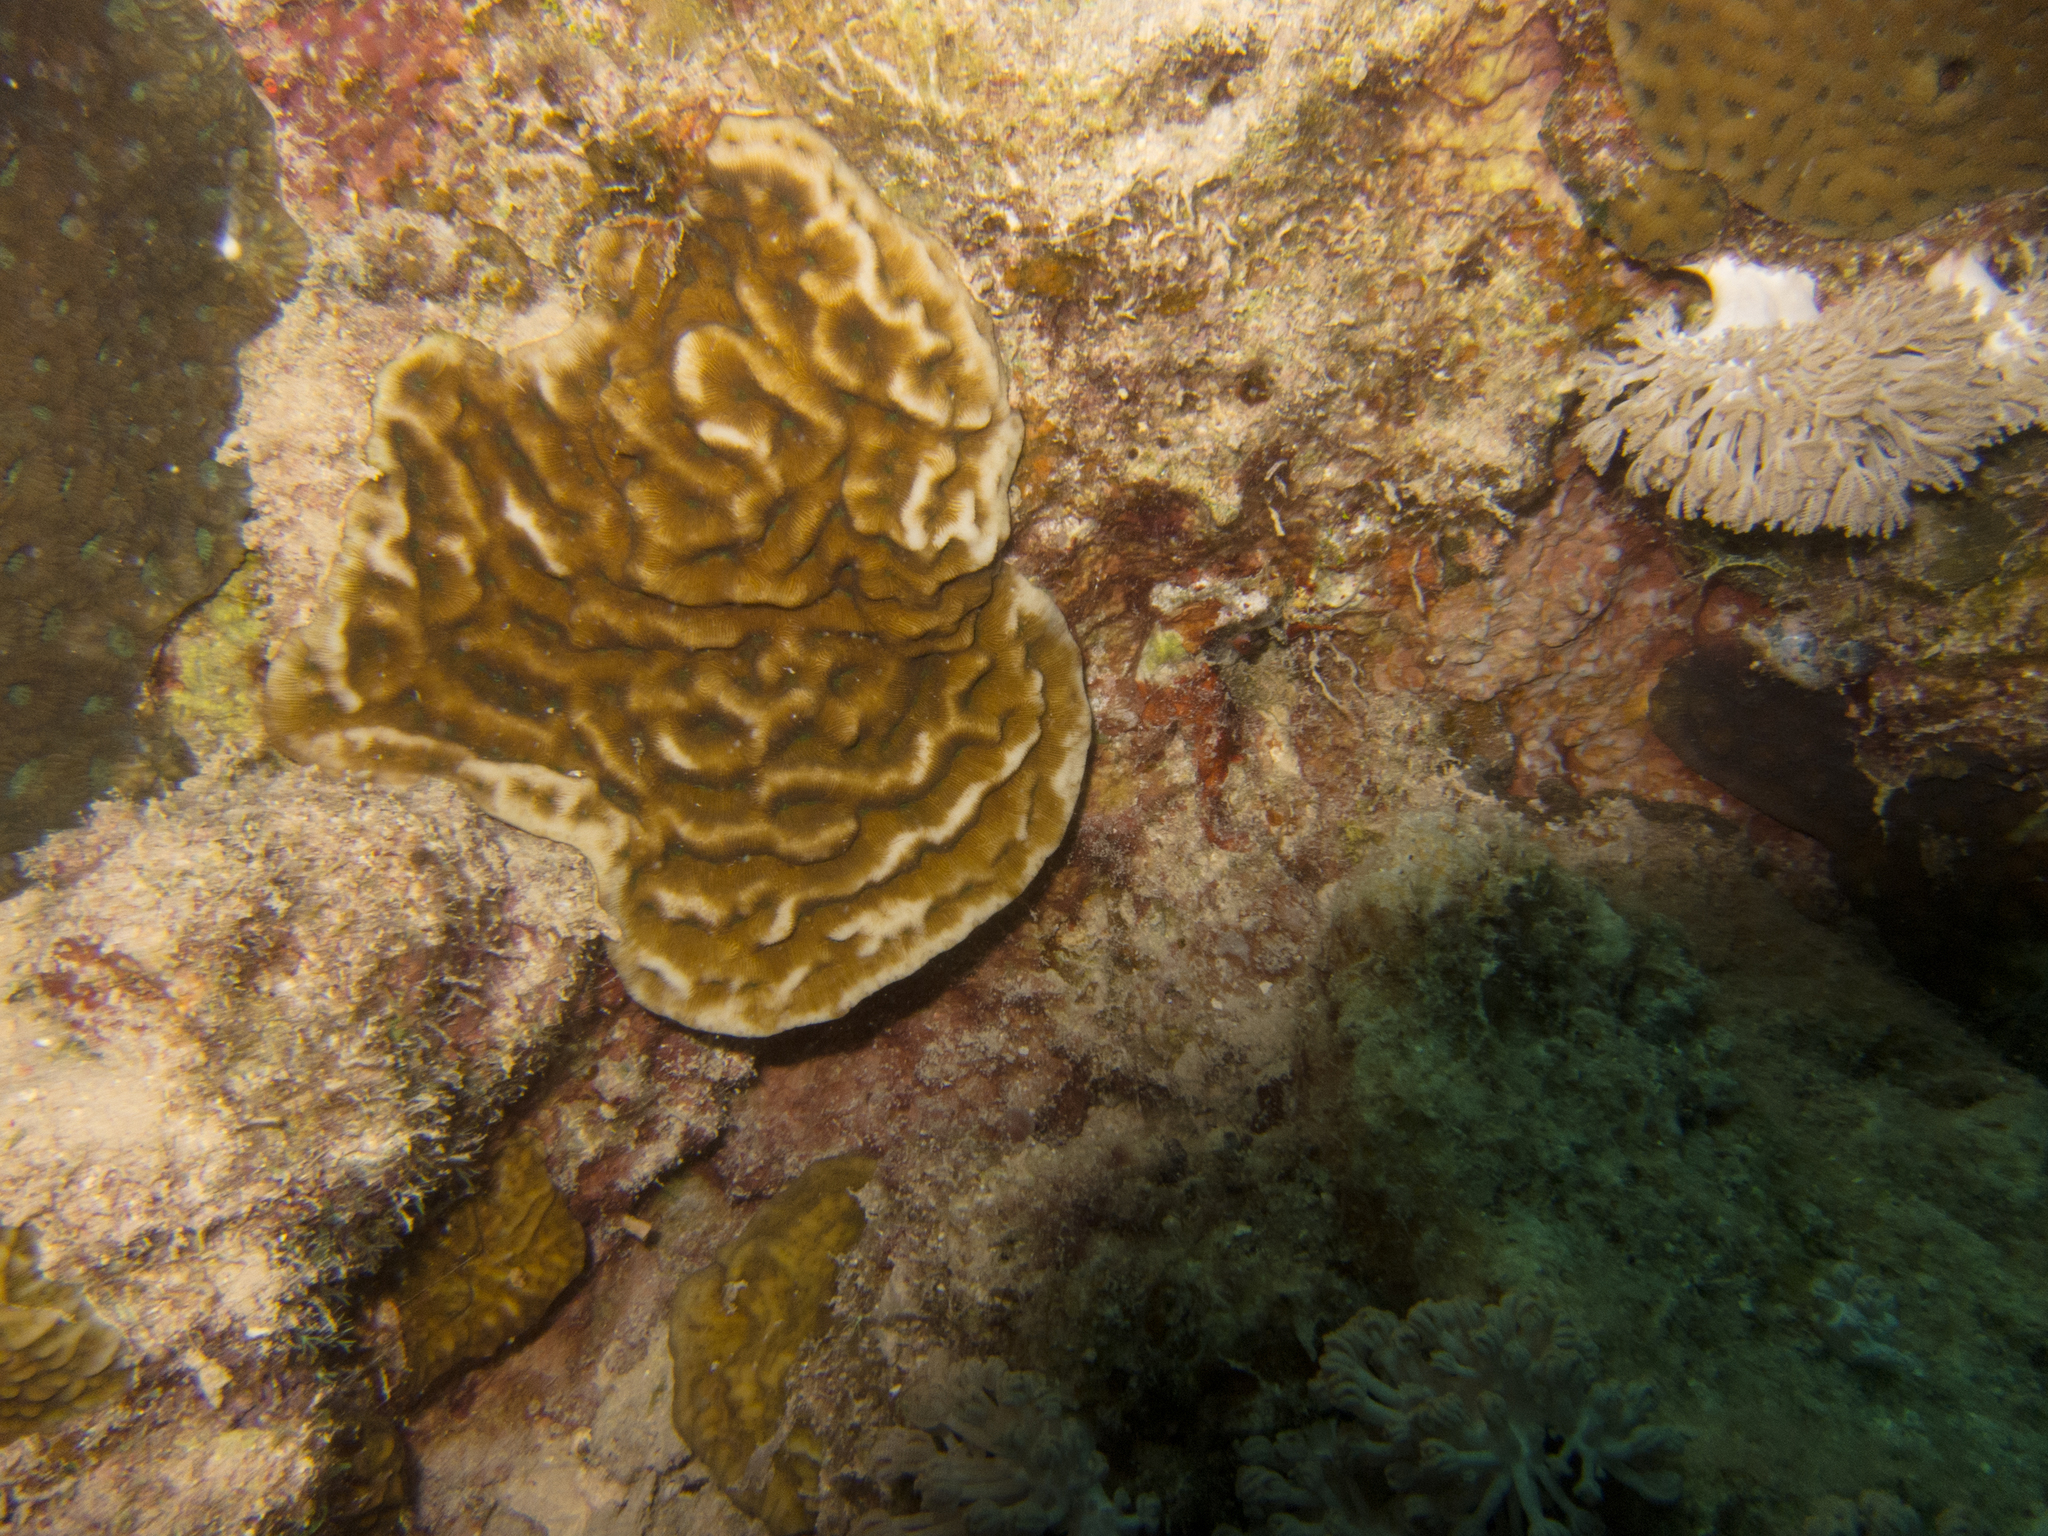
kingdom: Animalia
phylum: Cnidaria
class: Anthozoa
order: Scleractinia
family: Coscinaraeidae
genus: Coscinaraea
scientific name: Coscinaraea monile
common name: Wrinkle coral
